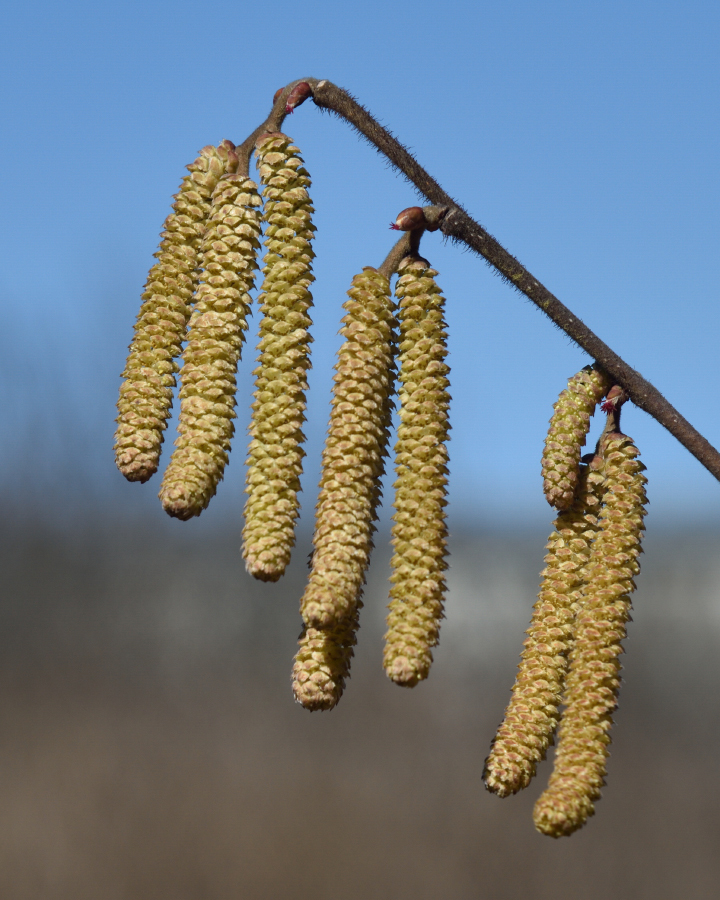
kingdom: Plantae
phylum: Tracheophyta
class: Magnoliopsida
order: Fagales
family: Betulaceae
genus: Corylus
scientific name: Corylus avellana
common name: European hazel
